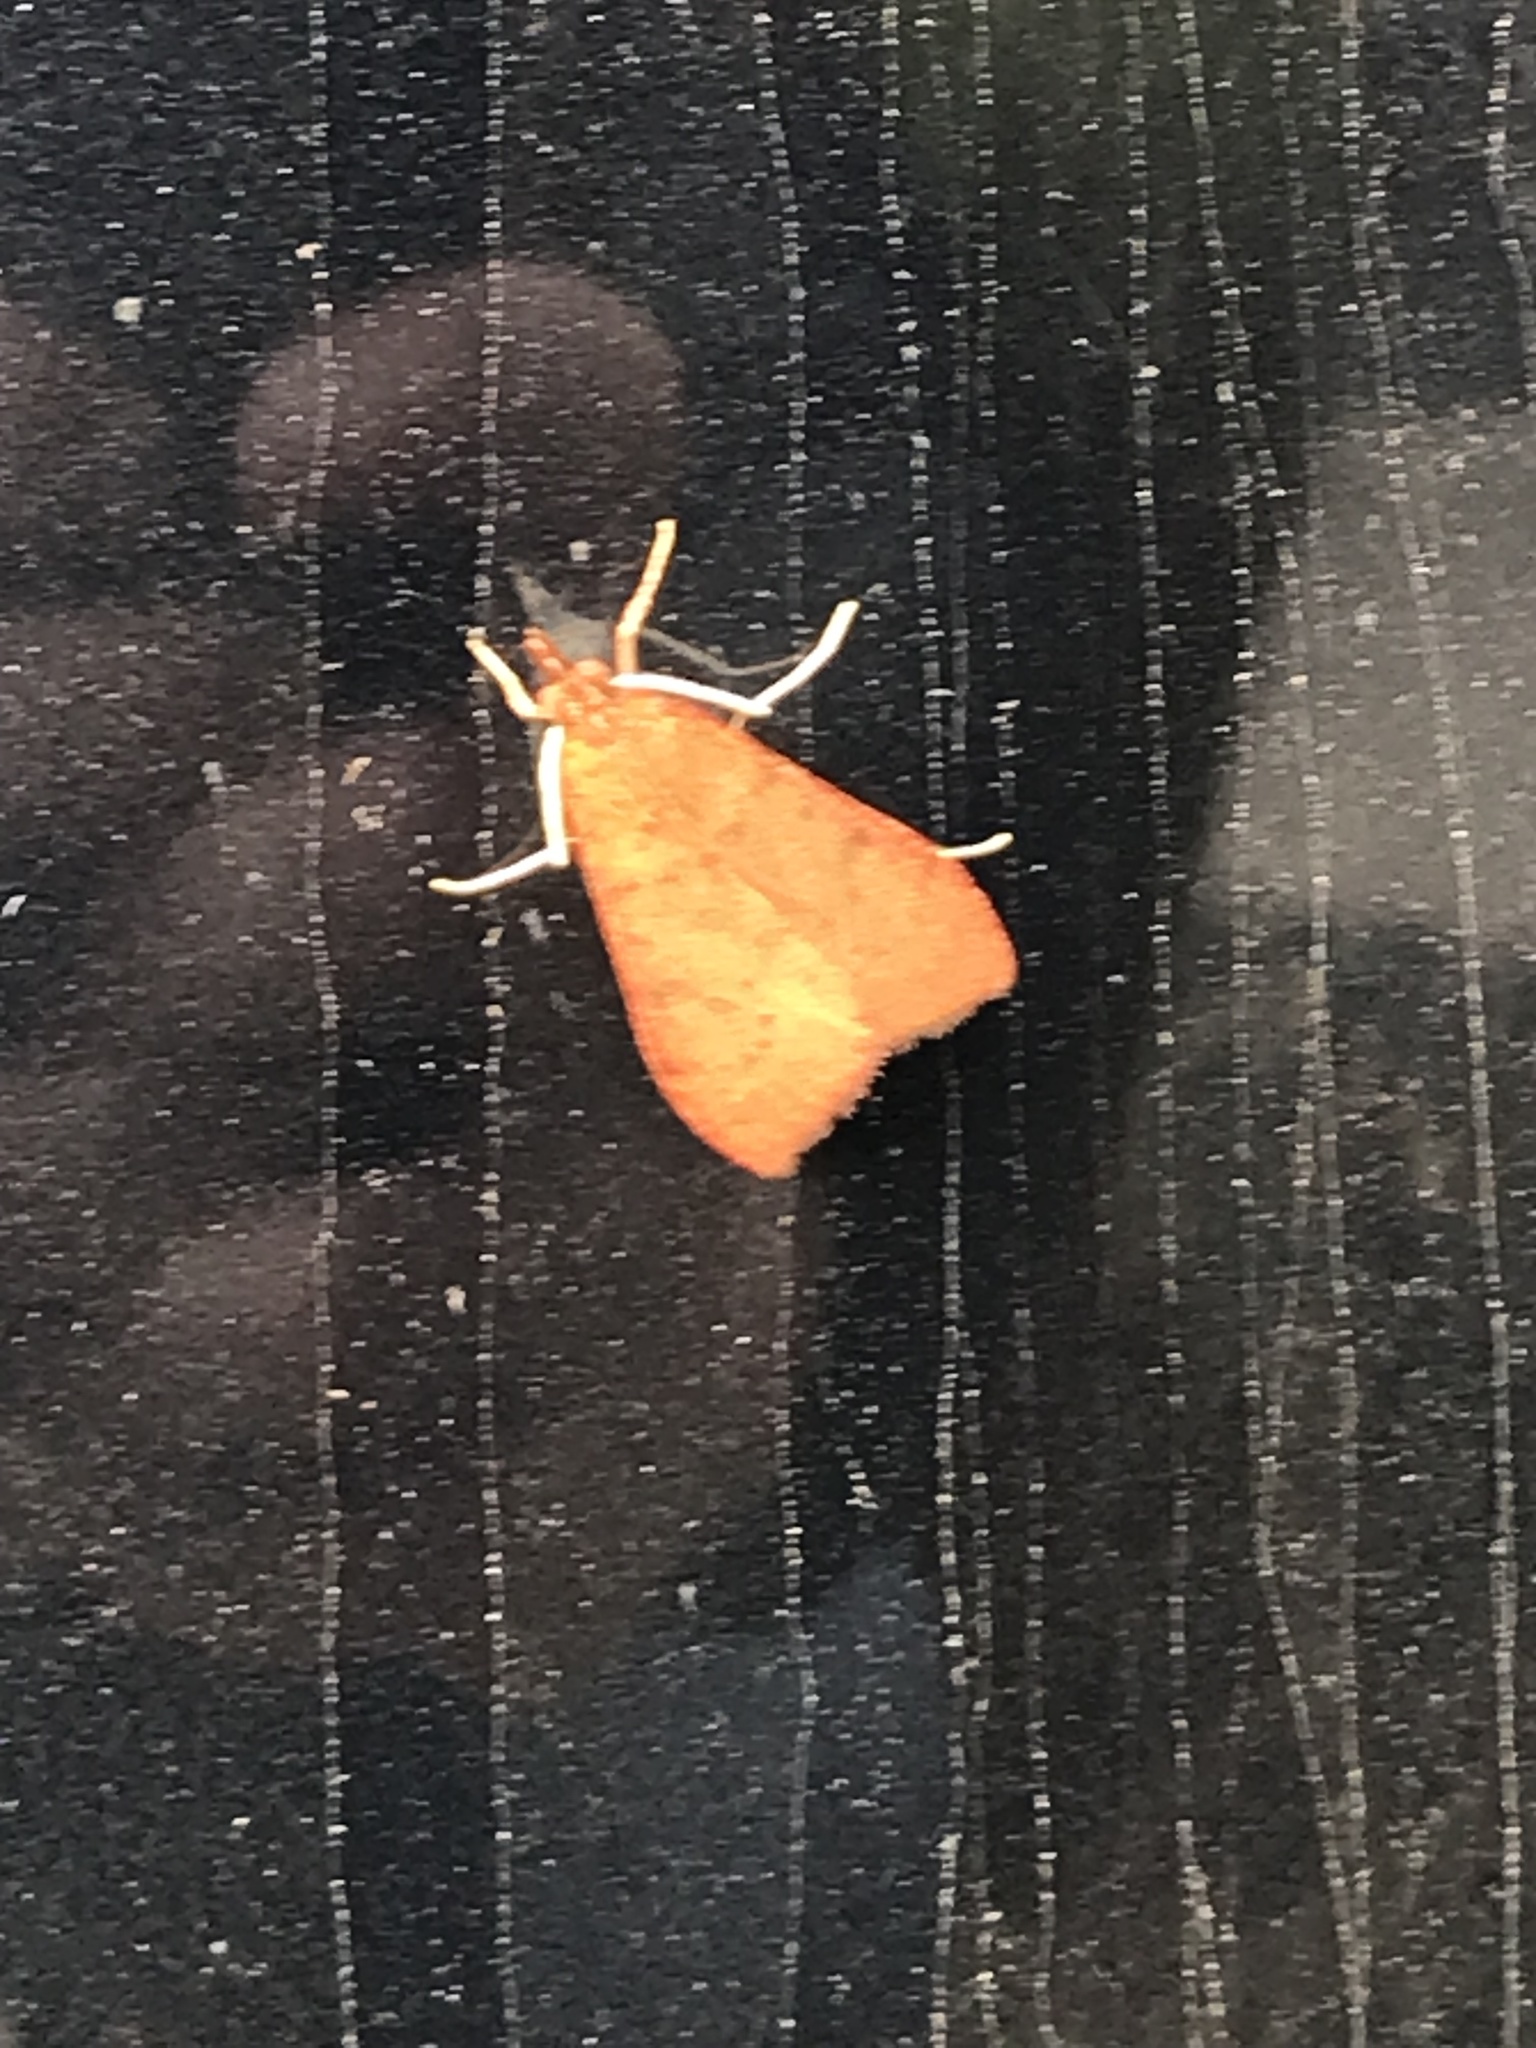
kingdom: Animalia
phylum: Arthropoda
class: Insecta
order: Lepidoptera
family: Crambidae
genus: Uresiphita
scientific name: Uresiphita reversalis
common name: Genista broom moth
